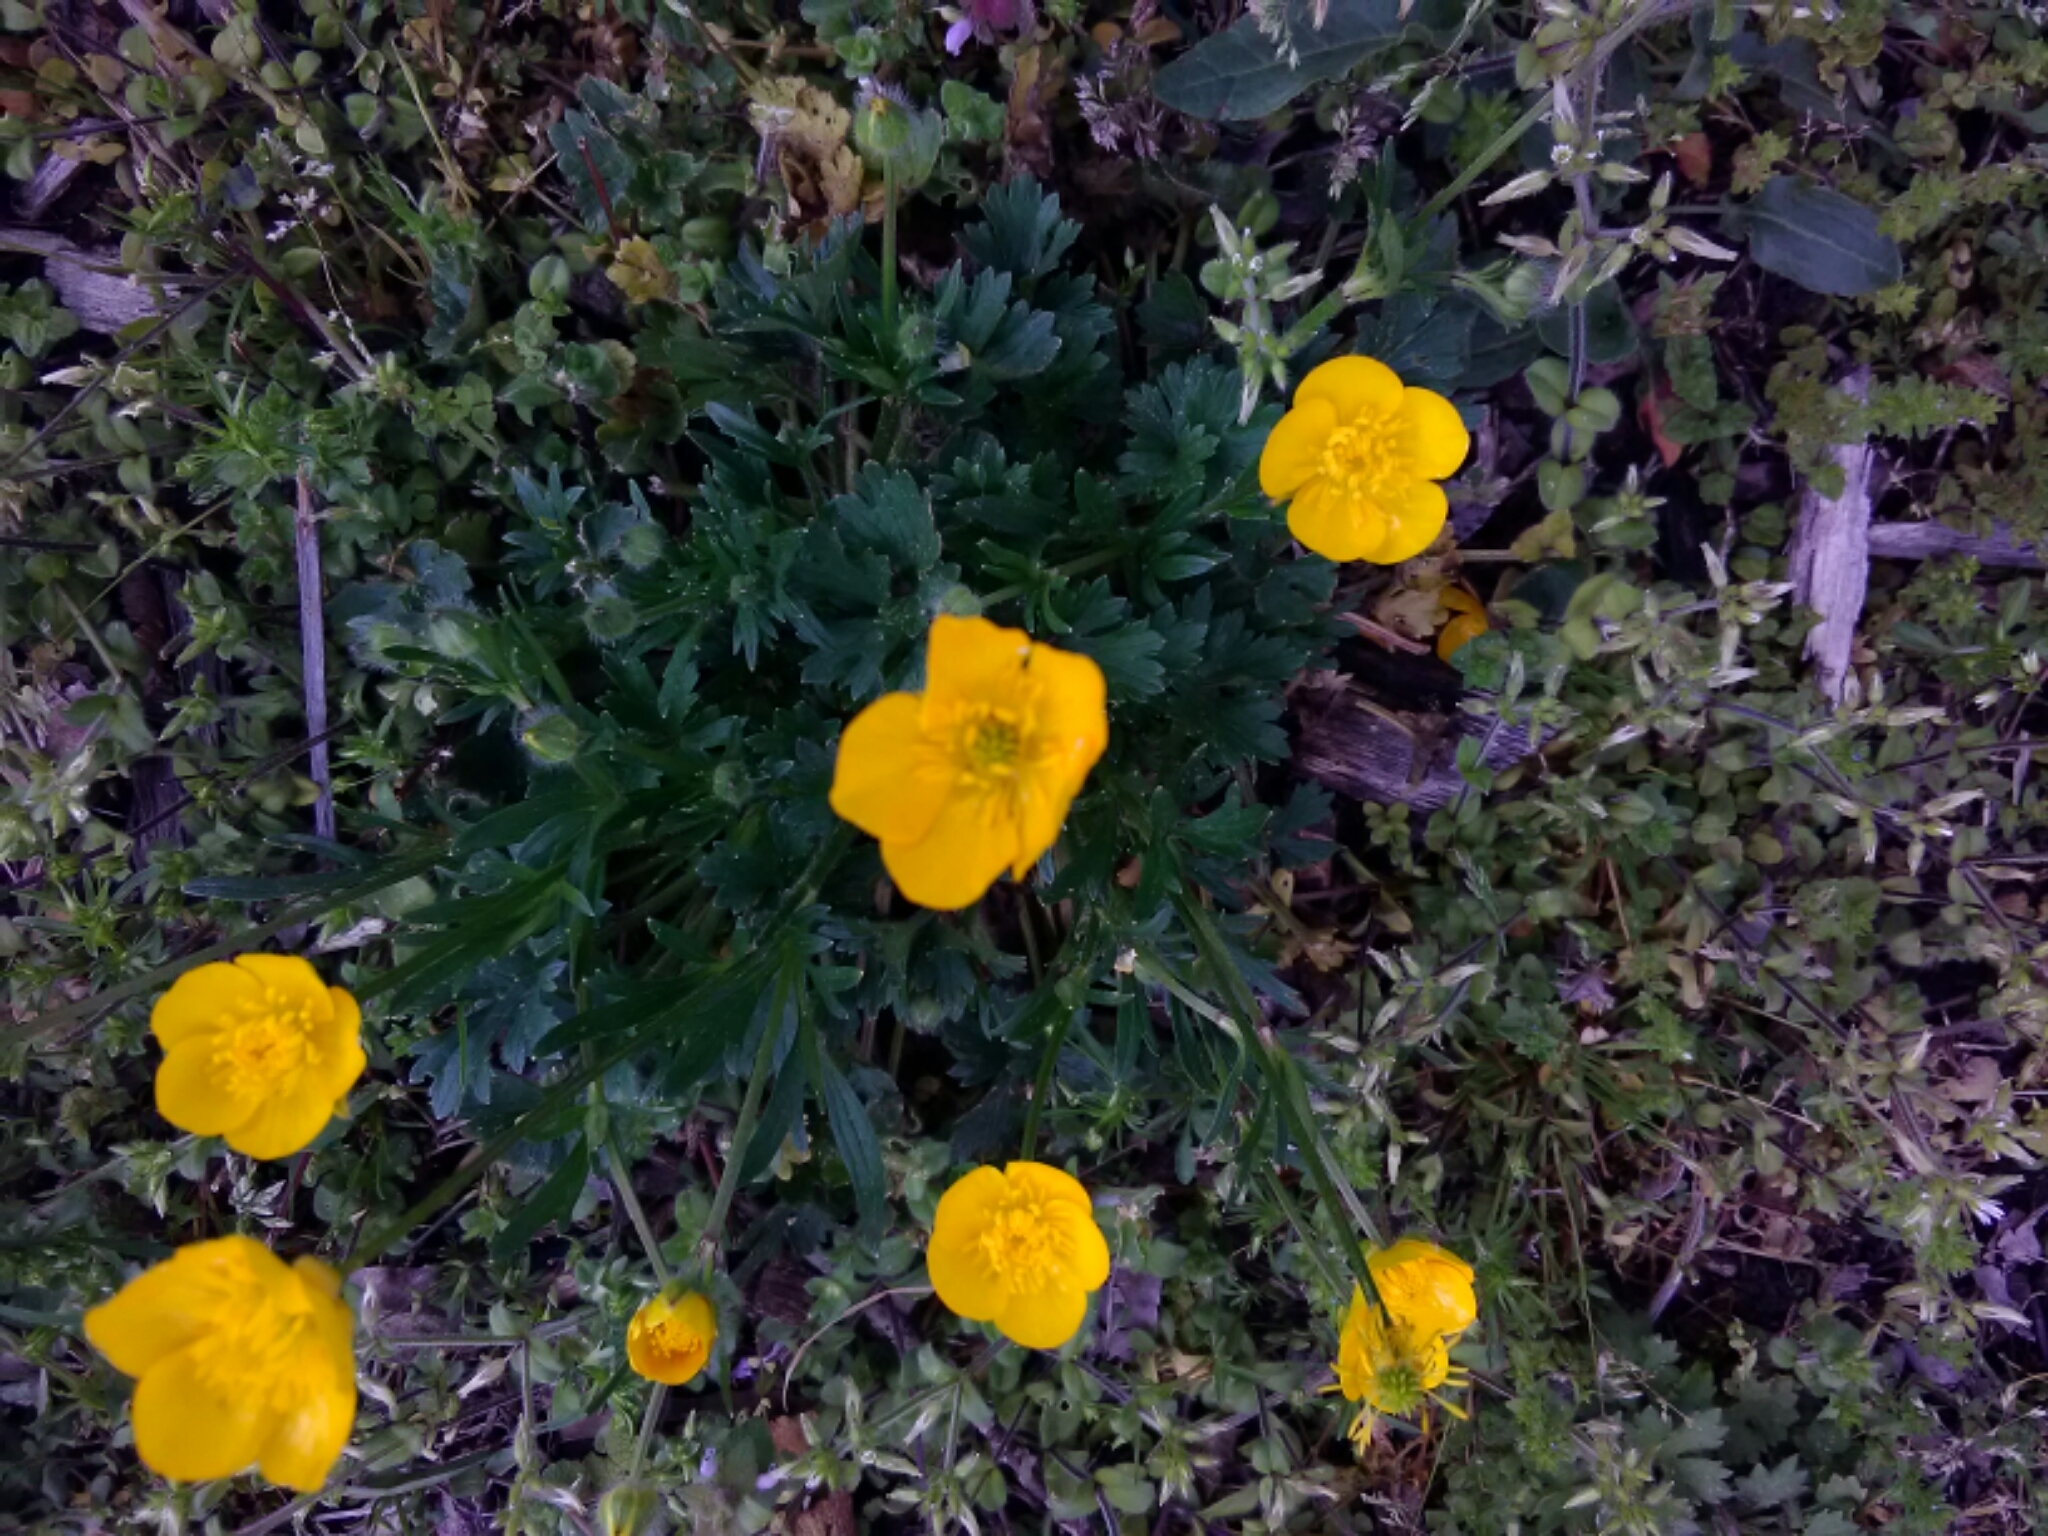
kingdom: Plantae
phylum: Tracheophyta
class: Magnoliopsida
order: Ranunculales
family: Ranunculaceae
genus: Ranunculus
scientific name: Ranunculus sardous
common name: Hairy buttercup
